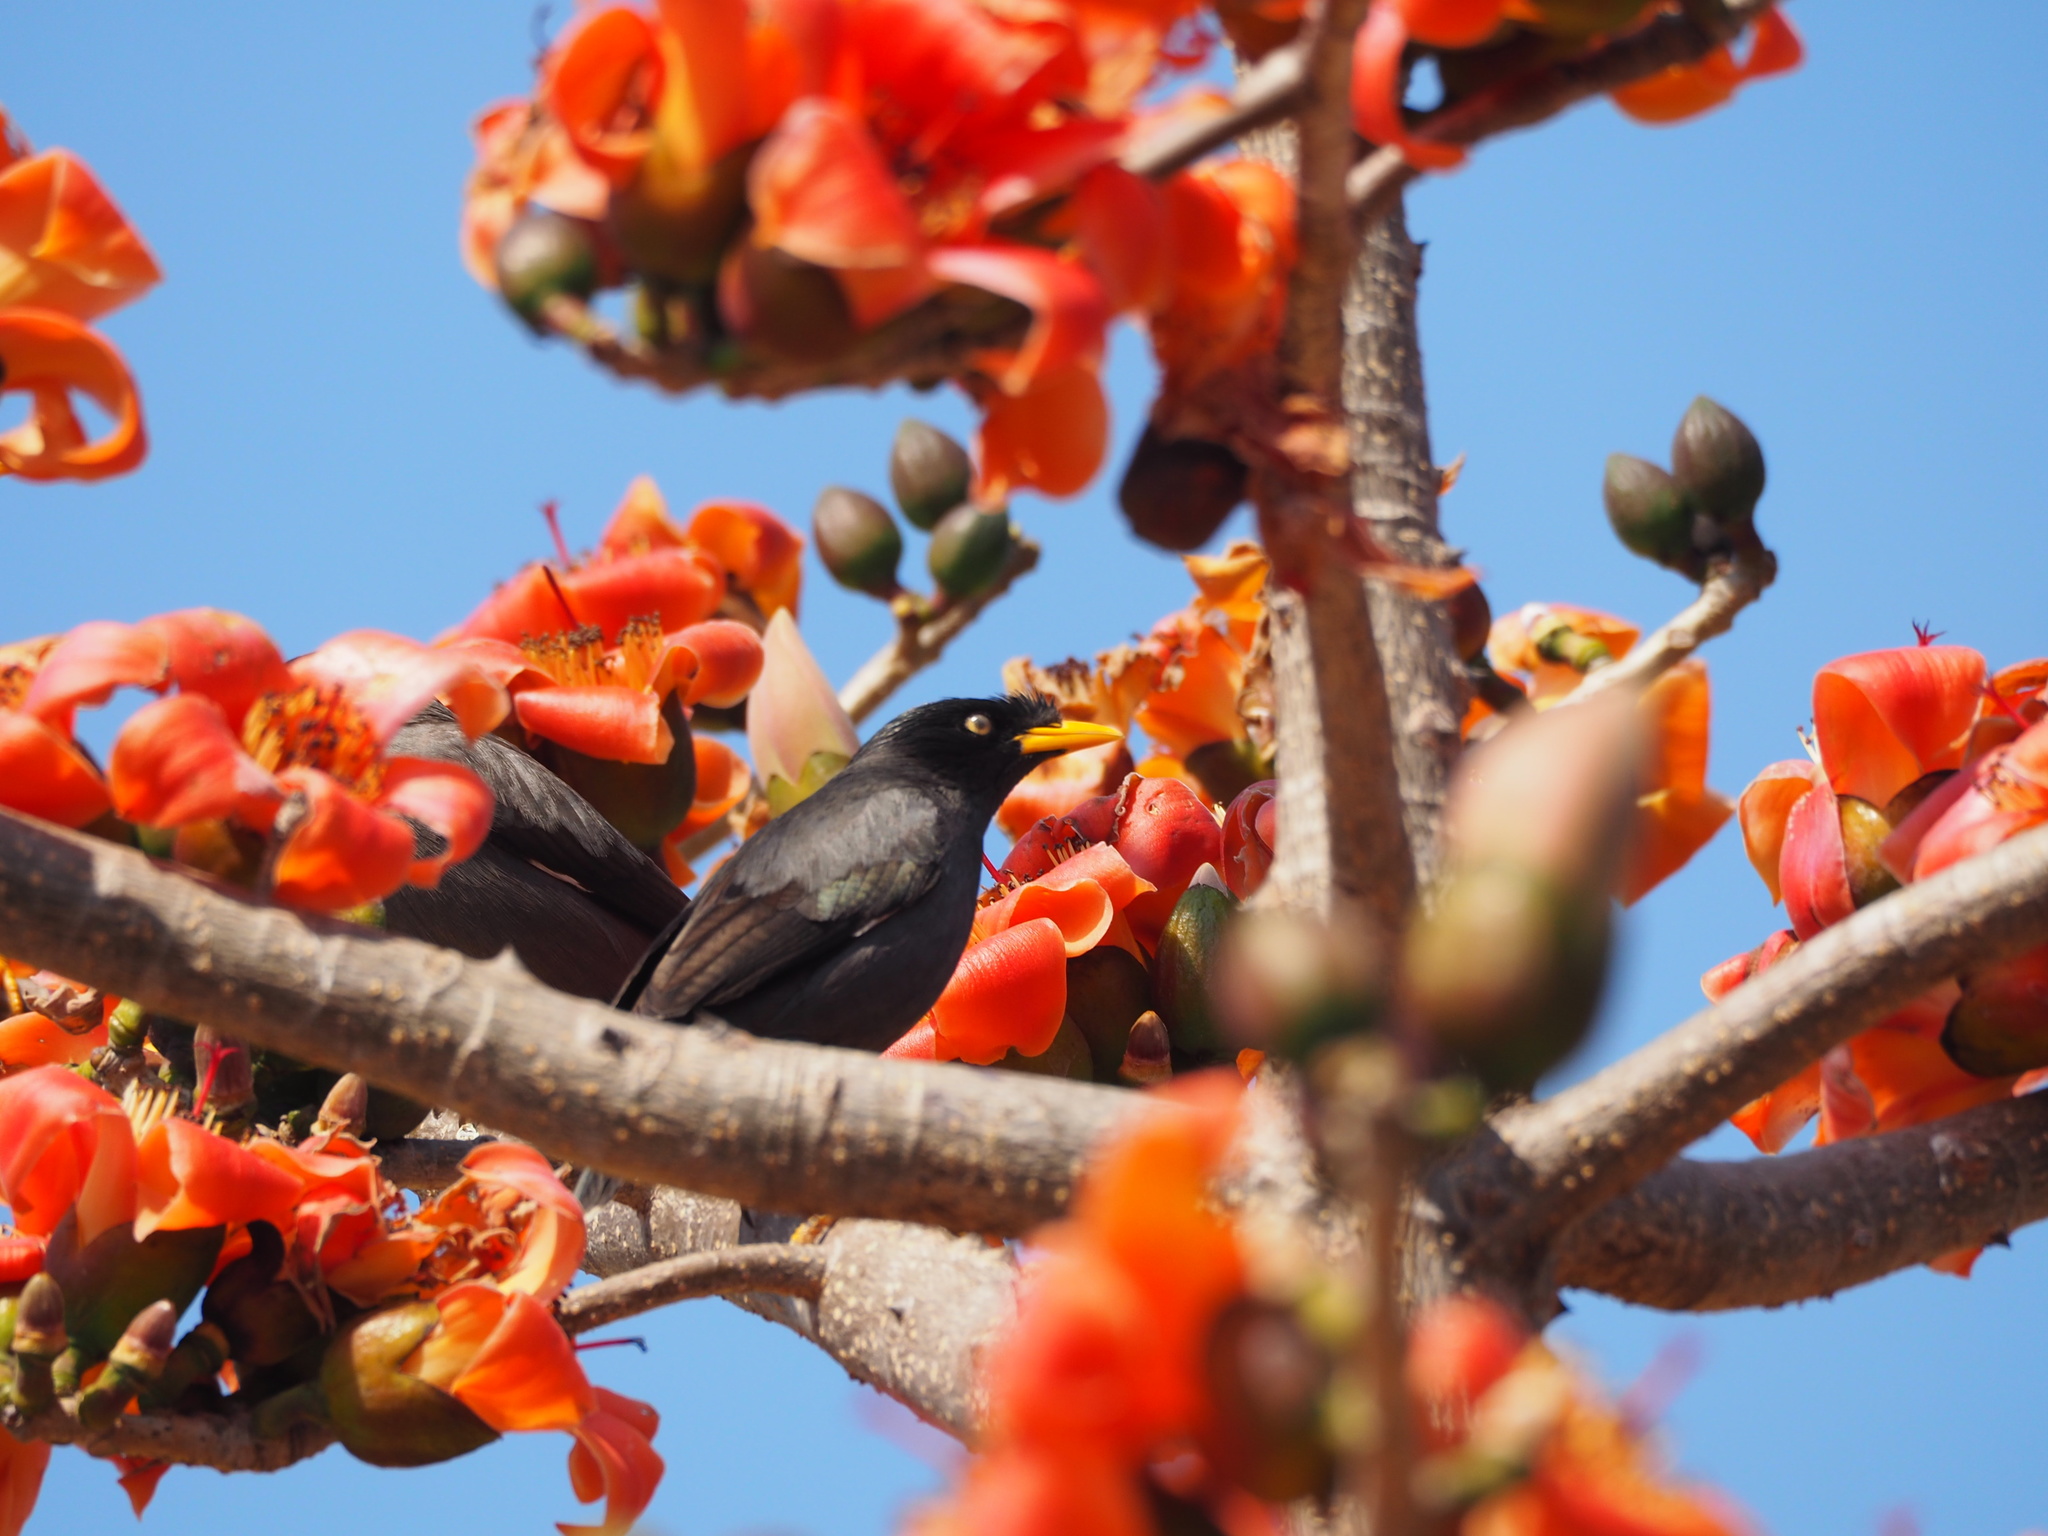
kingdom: Animalia
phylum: Chordata
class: Aves
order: Passeriformes
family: Sturnidae
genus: Acridotheres
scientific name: Acridotheres javanicus
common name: Javan myna
